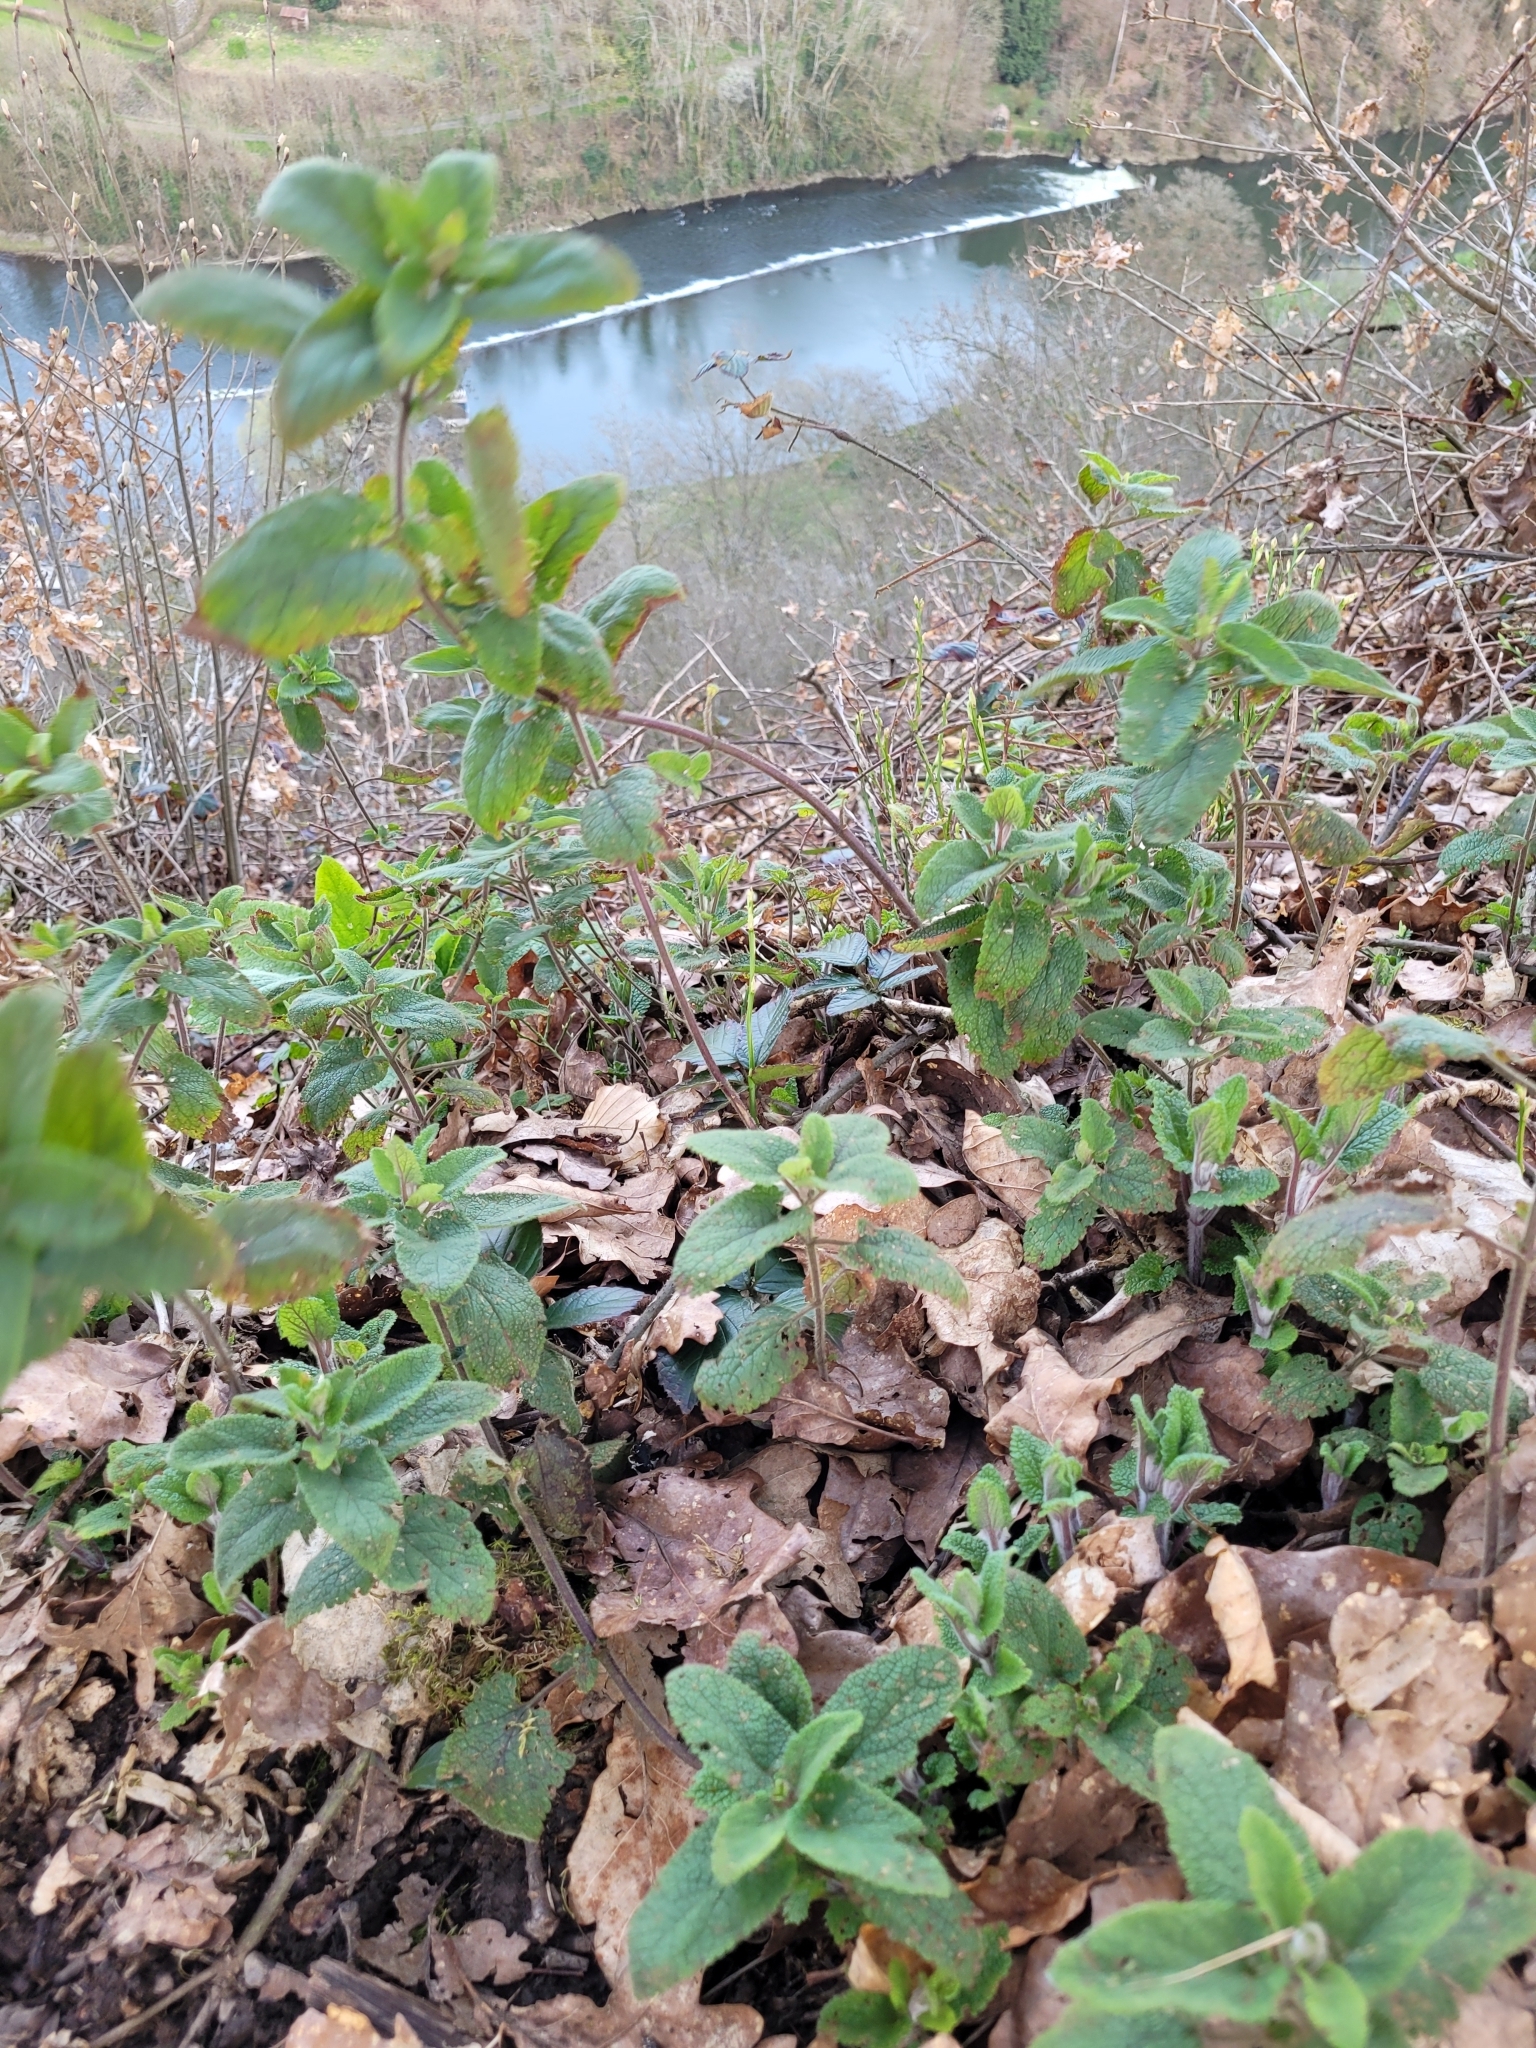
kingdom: Plantae
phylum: Tracheophyta
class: Magnoliopsida
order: Lamiales
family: Lamiaceae
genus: Teucrium
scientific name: Teucrium scorodonia
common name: Woodland germander
